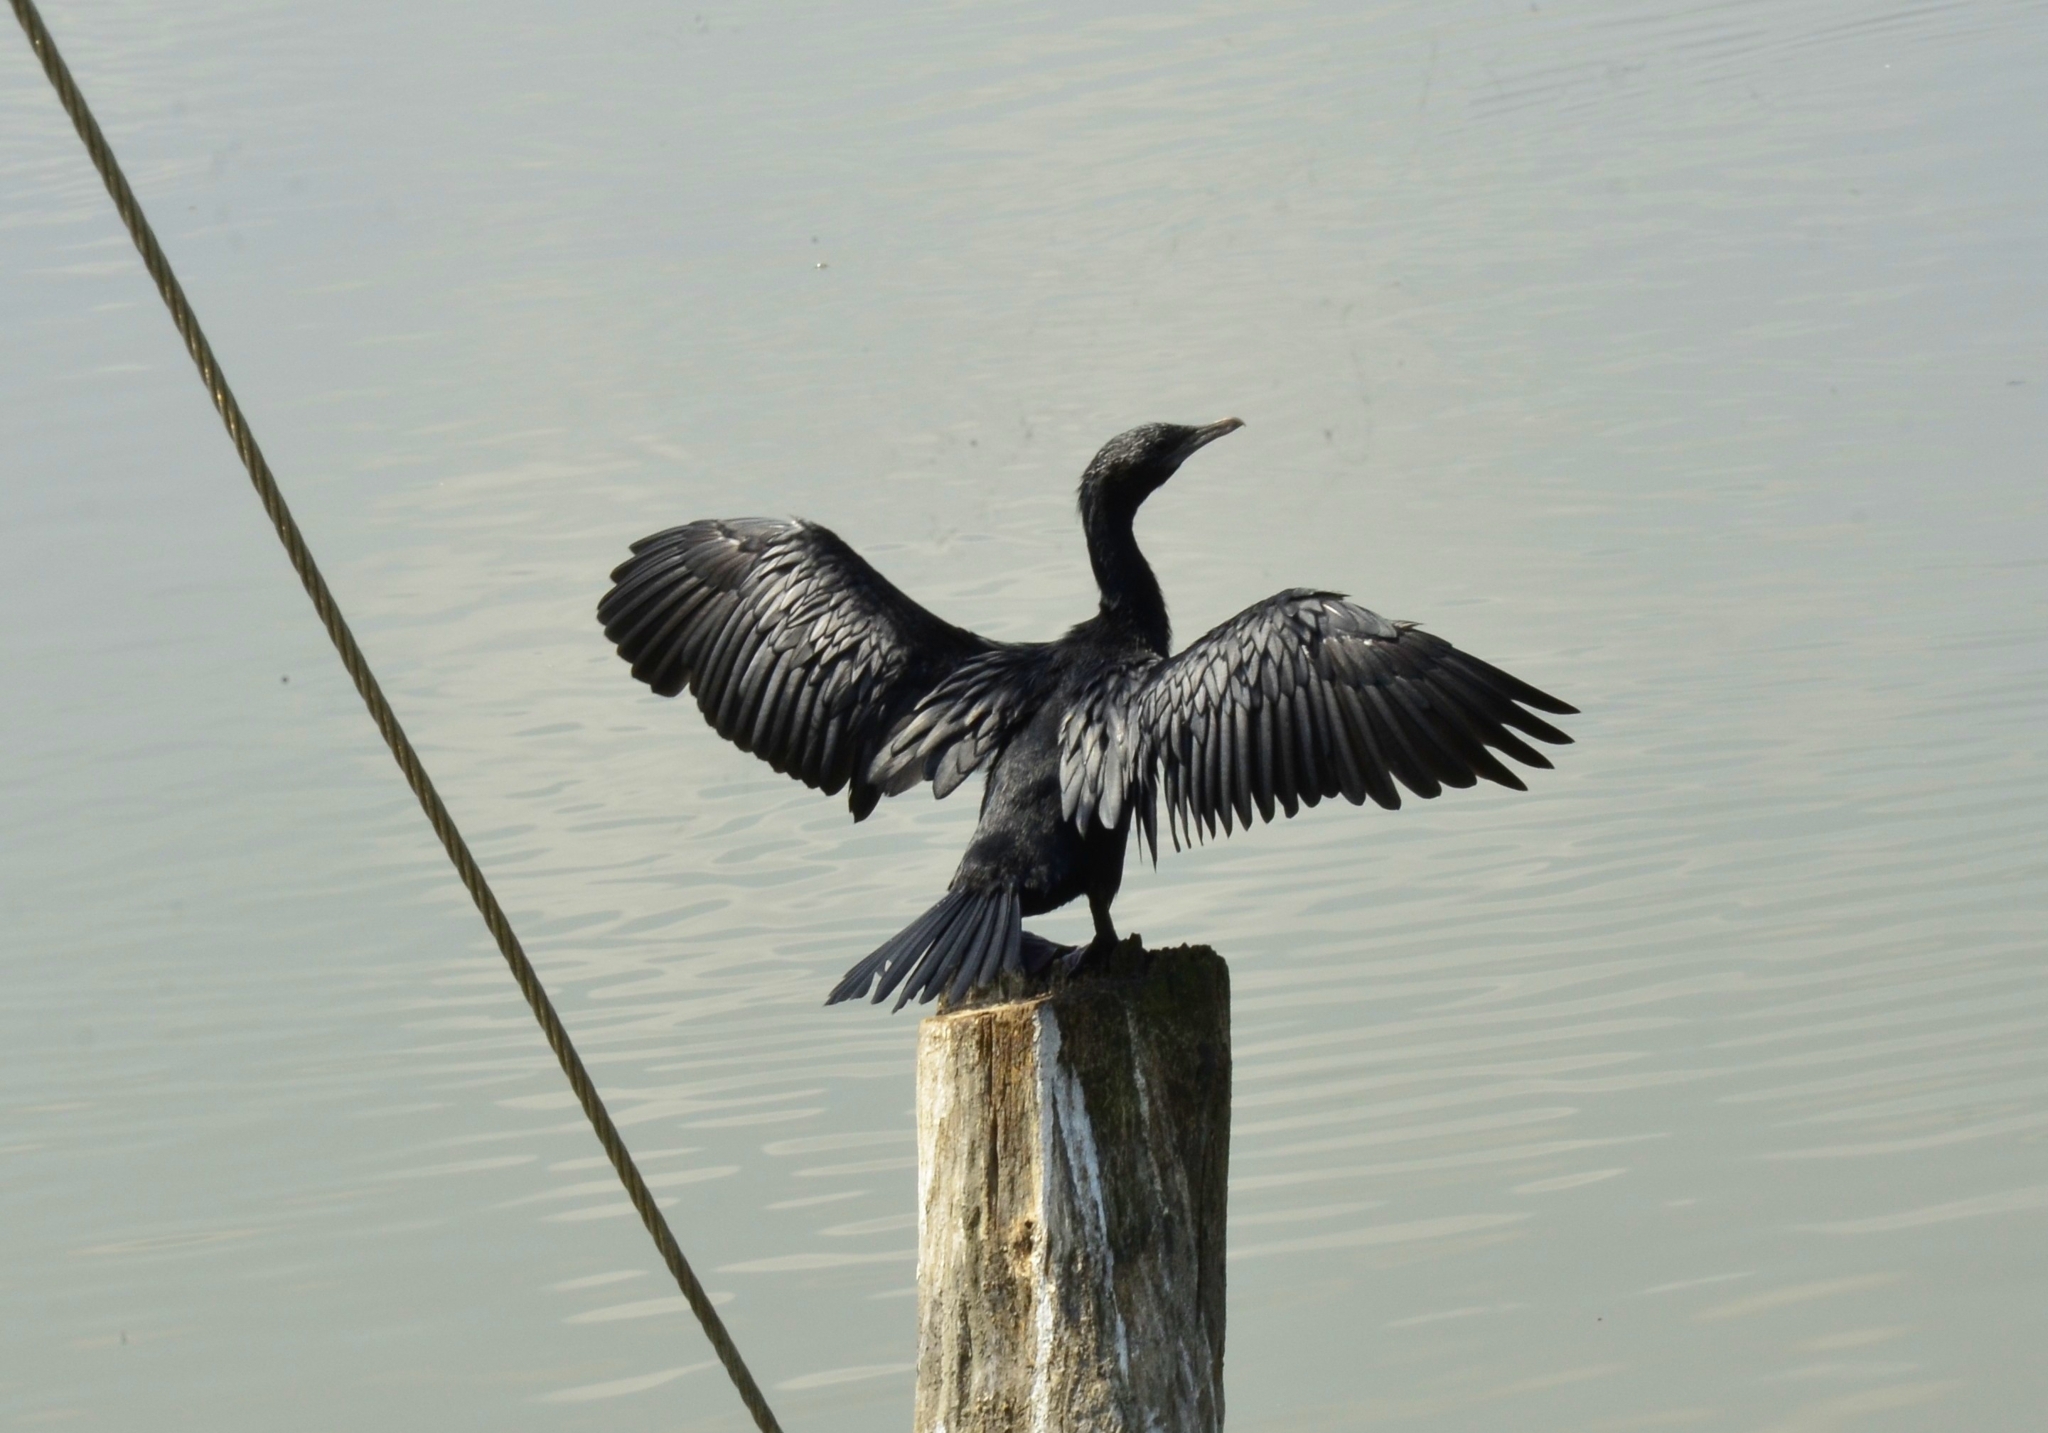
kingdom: Animalia
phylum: Chordata
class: Aves
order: Suliformes
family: Phalacrocoracidae
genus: Microcarbo
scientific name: Microcarbo niger
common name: Little cormorant
